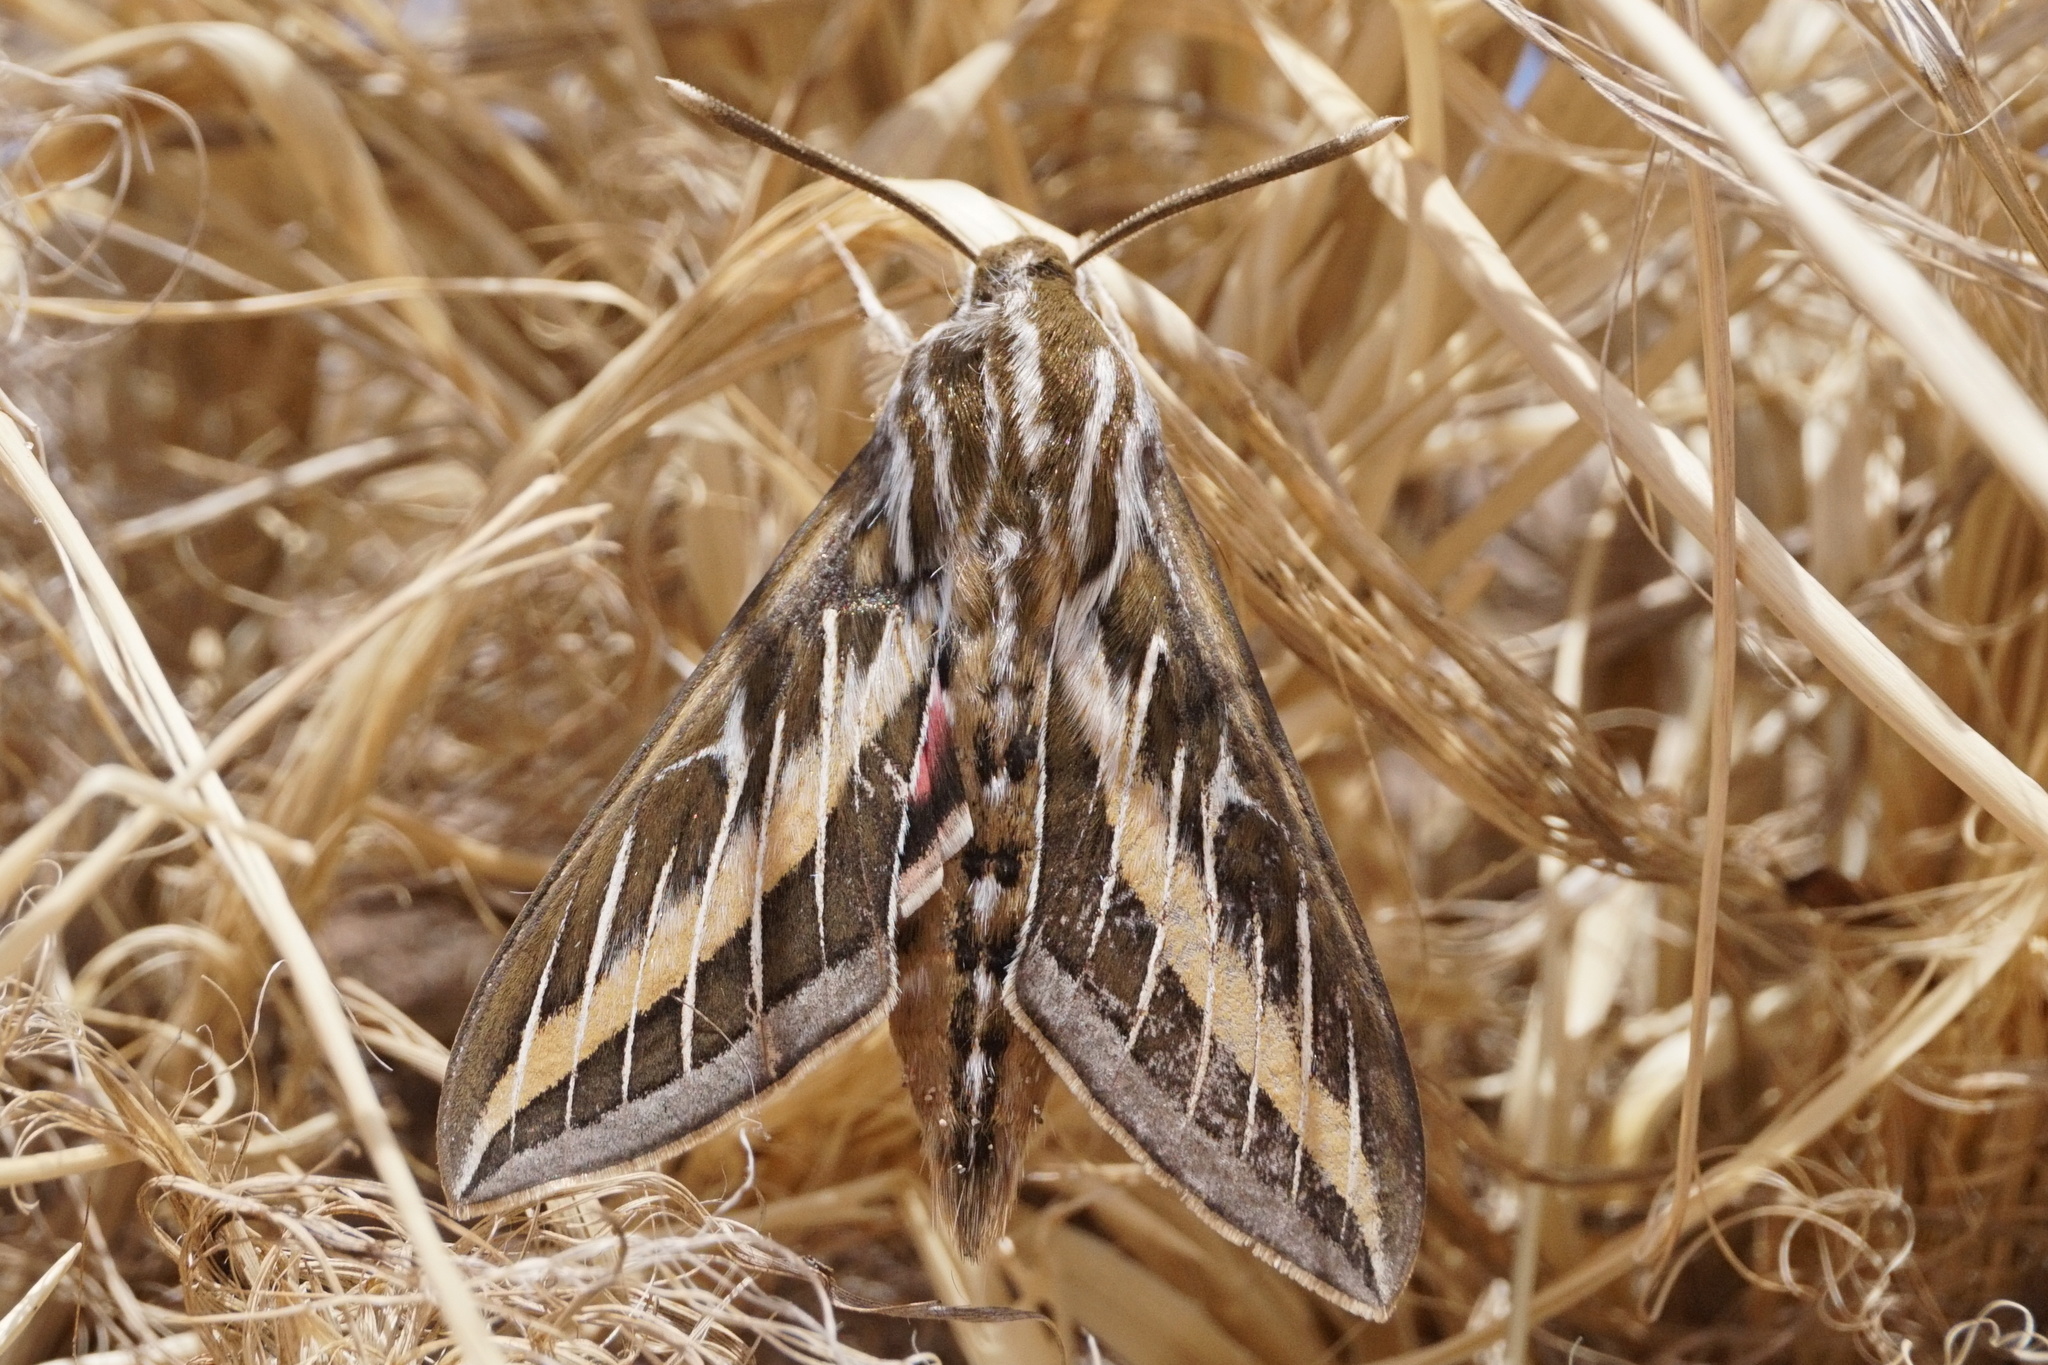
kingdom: Animalia
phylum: Arthropoda
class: Insecta
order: Lepidoptera
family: Sphingidae
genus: Hyles
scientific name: Hyles lineata
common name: White-lined sphinx
